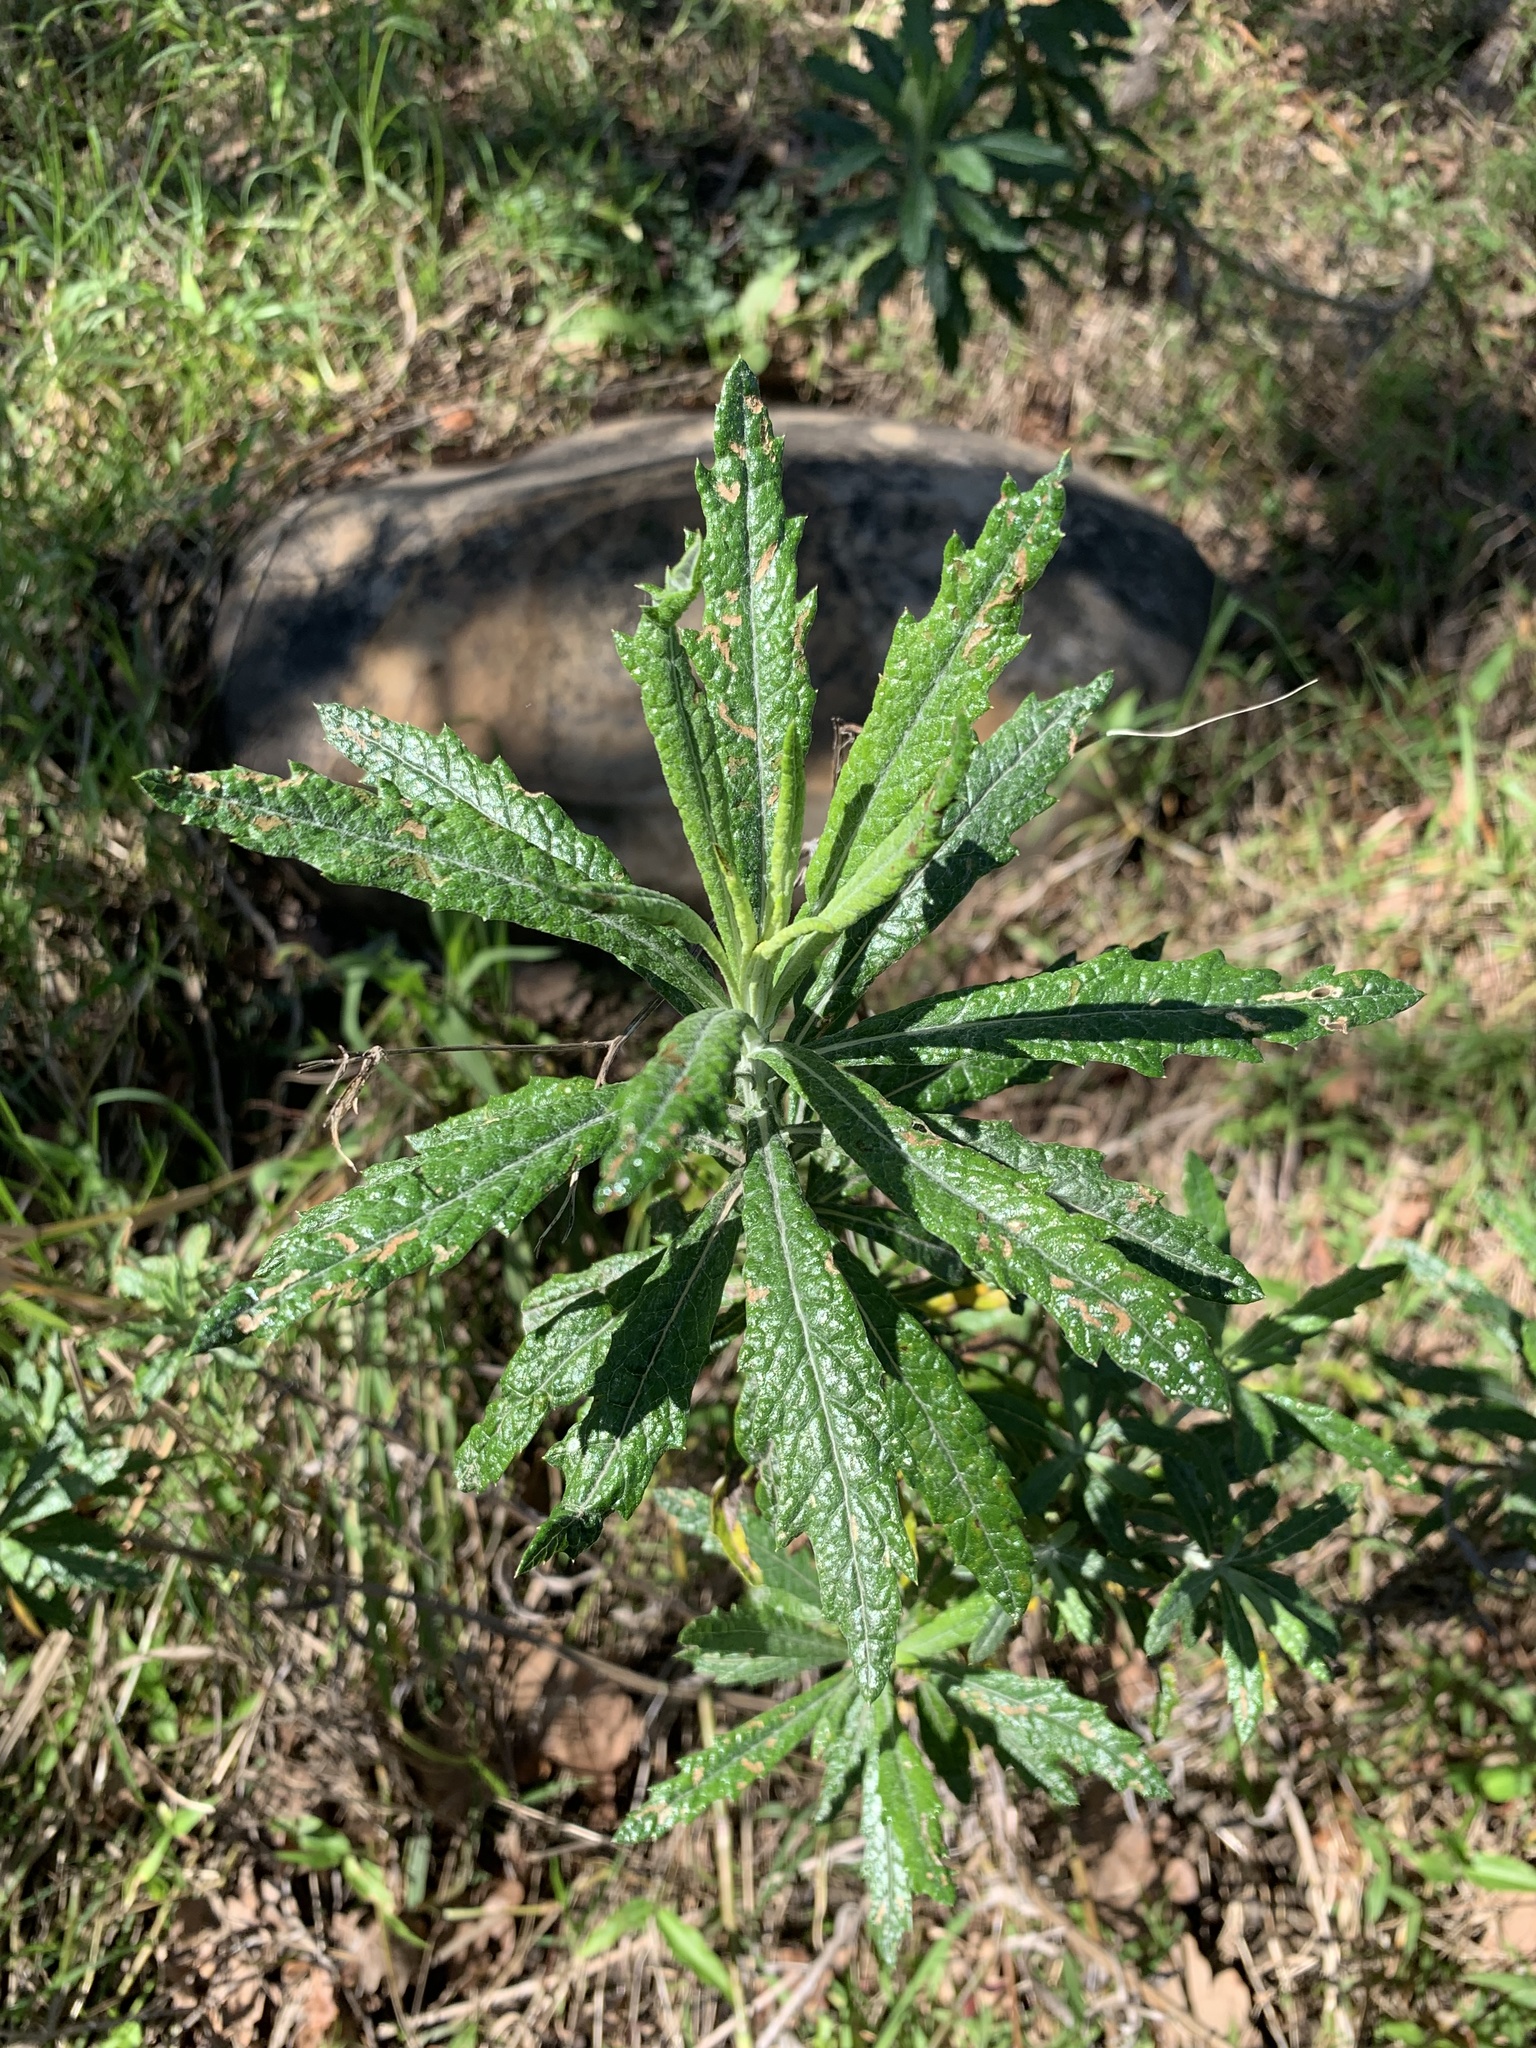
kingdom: Plantae
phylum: Tracheophyta
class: Magnoliopsida
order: Asterales
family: Asteraceae
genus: Senecio
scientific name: Senecio pterophorus
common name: Shoddy ragwort
